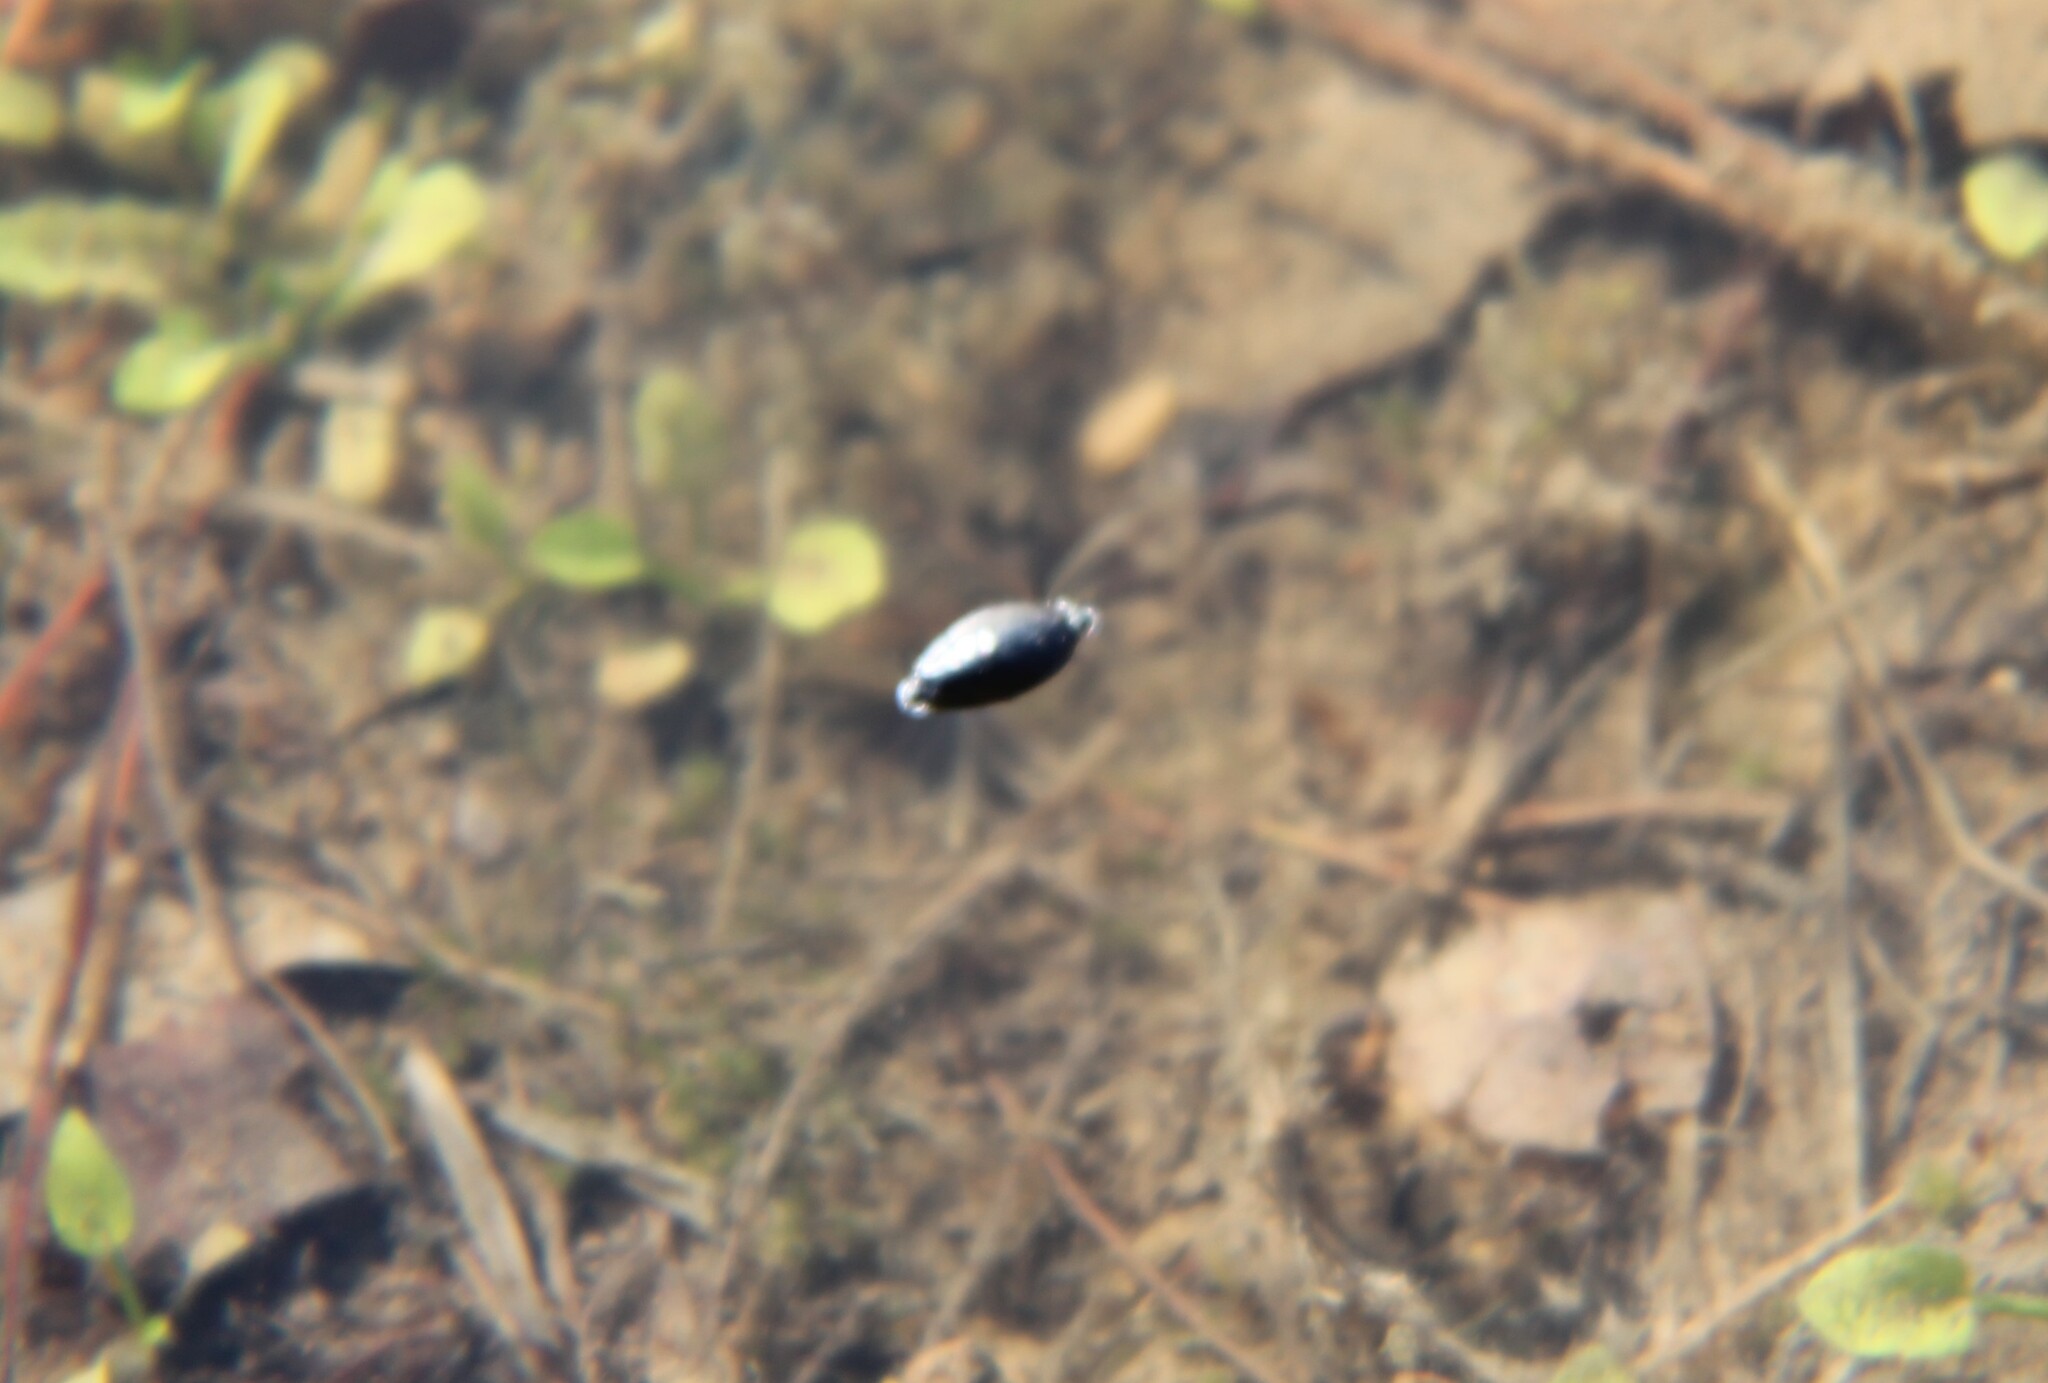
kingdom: Animalia
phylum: Arthropoda
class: Insecta
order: Coleoptera
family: Gyrinidae
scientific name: Gyrinidae
